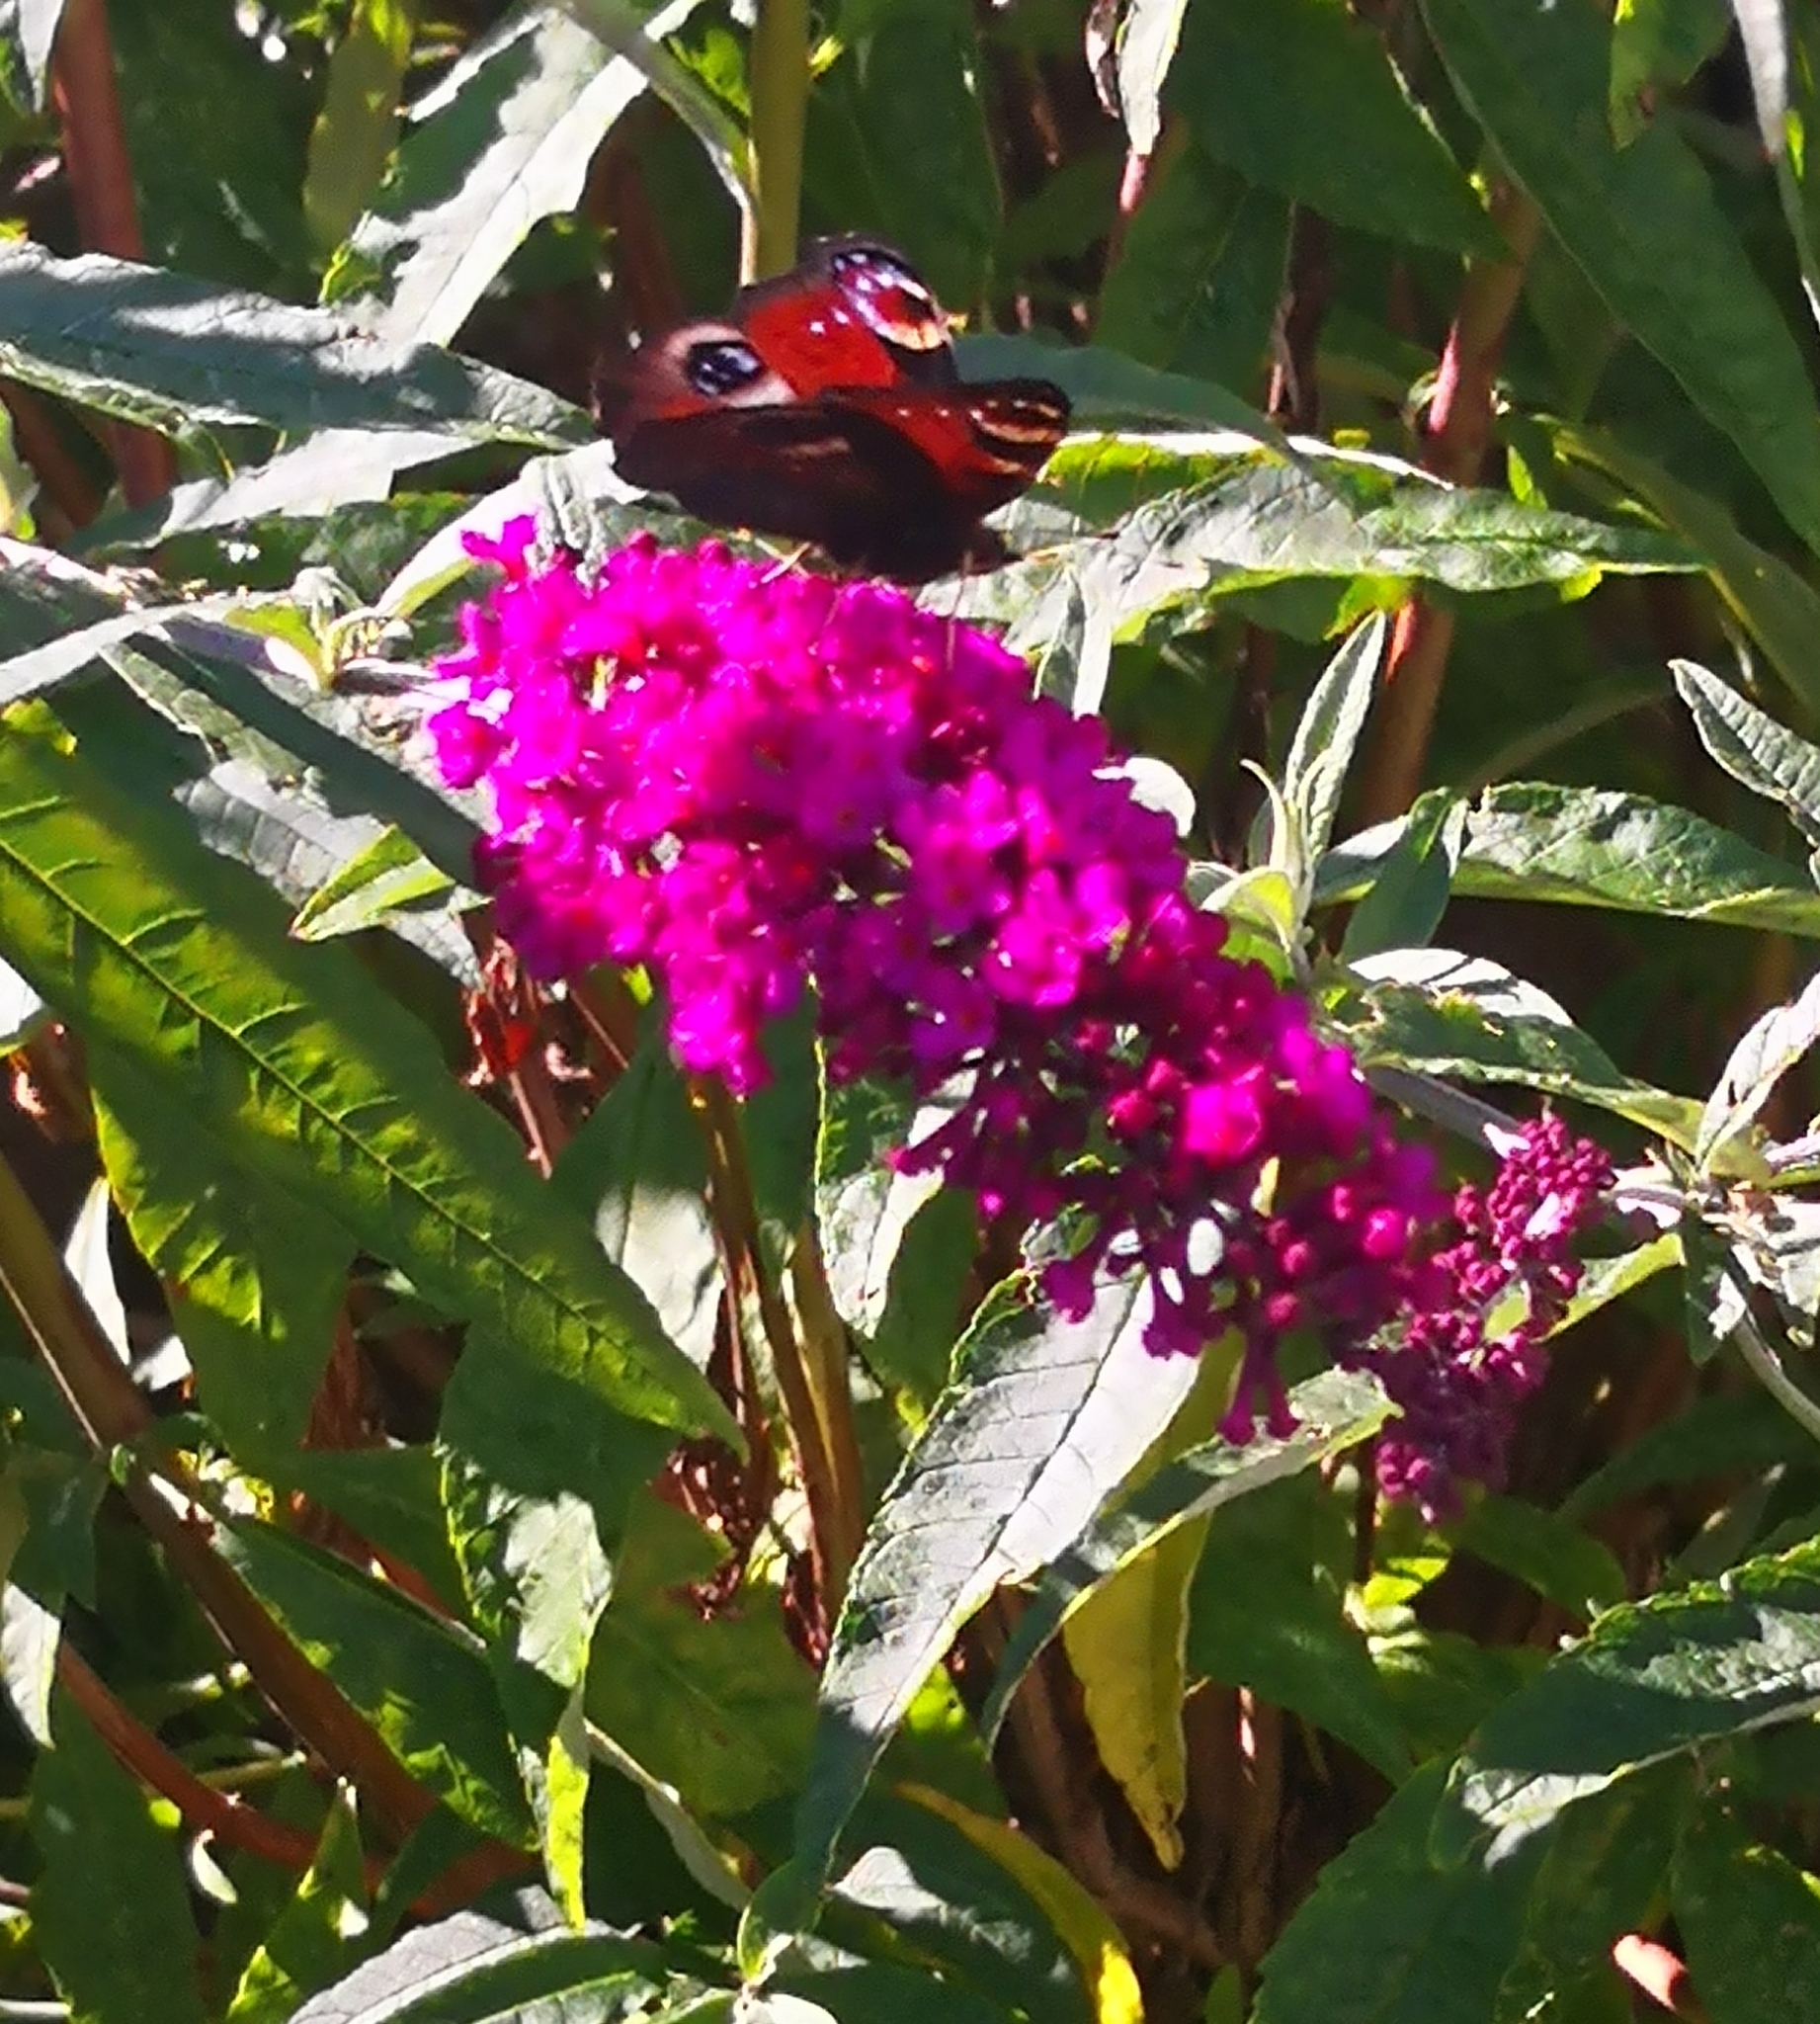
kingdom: Animalia
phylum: Arthropoda
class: Insecta
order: Lepidoptera
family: Nymphalidae
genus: Aglais
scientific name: Aglais io
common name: Peacock
